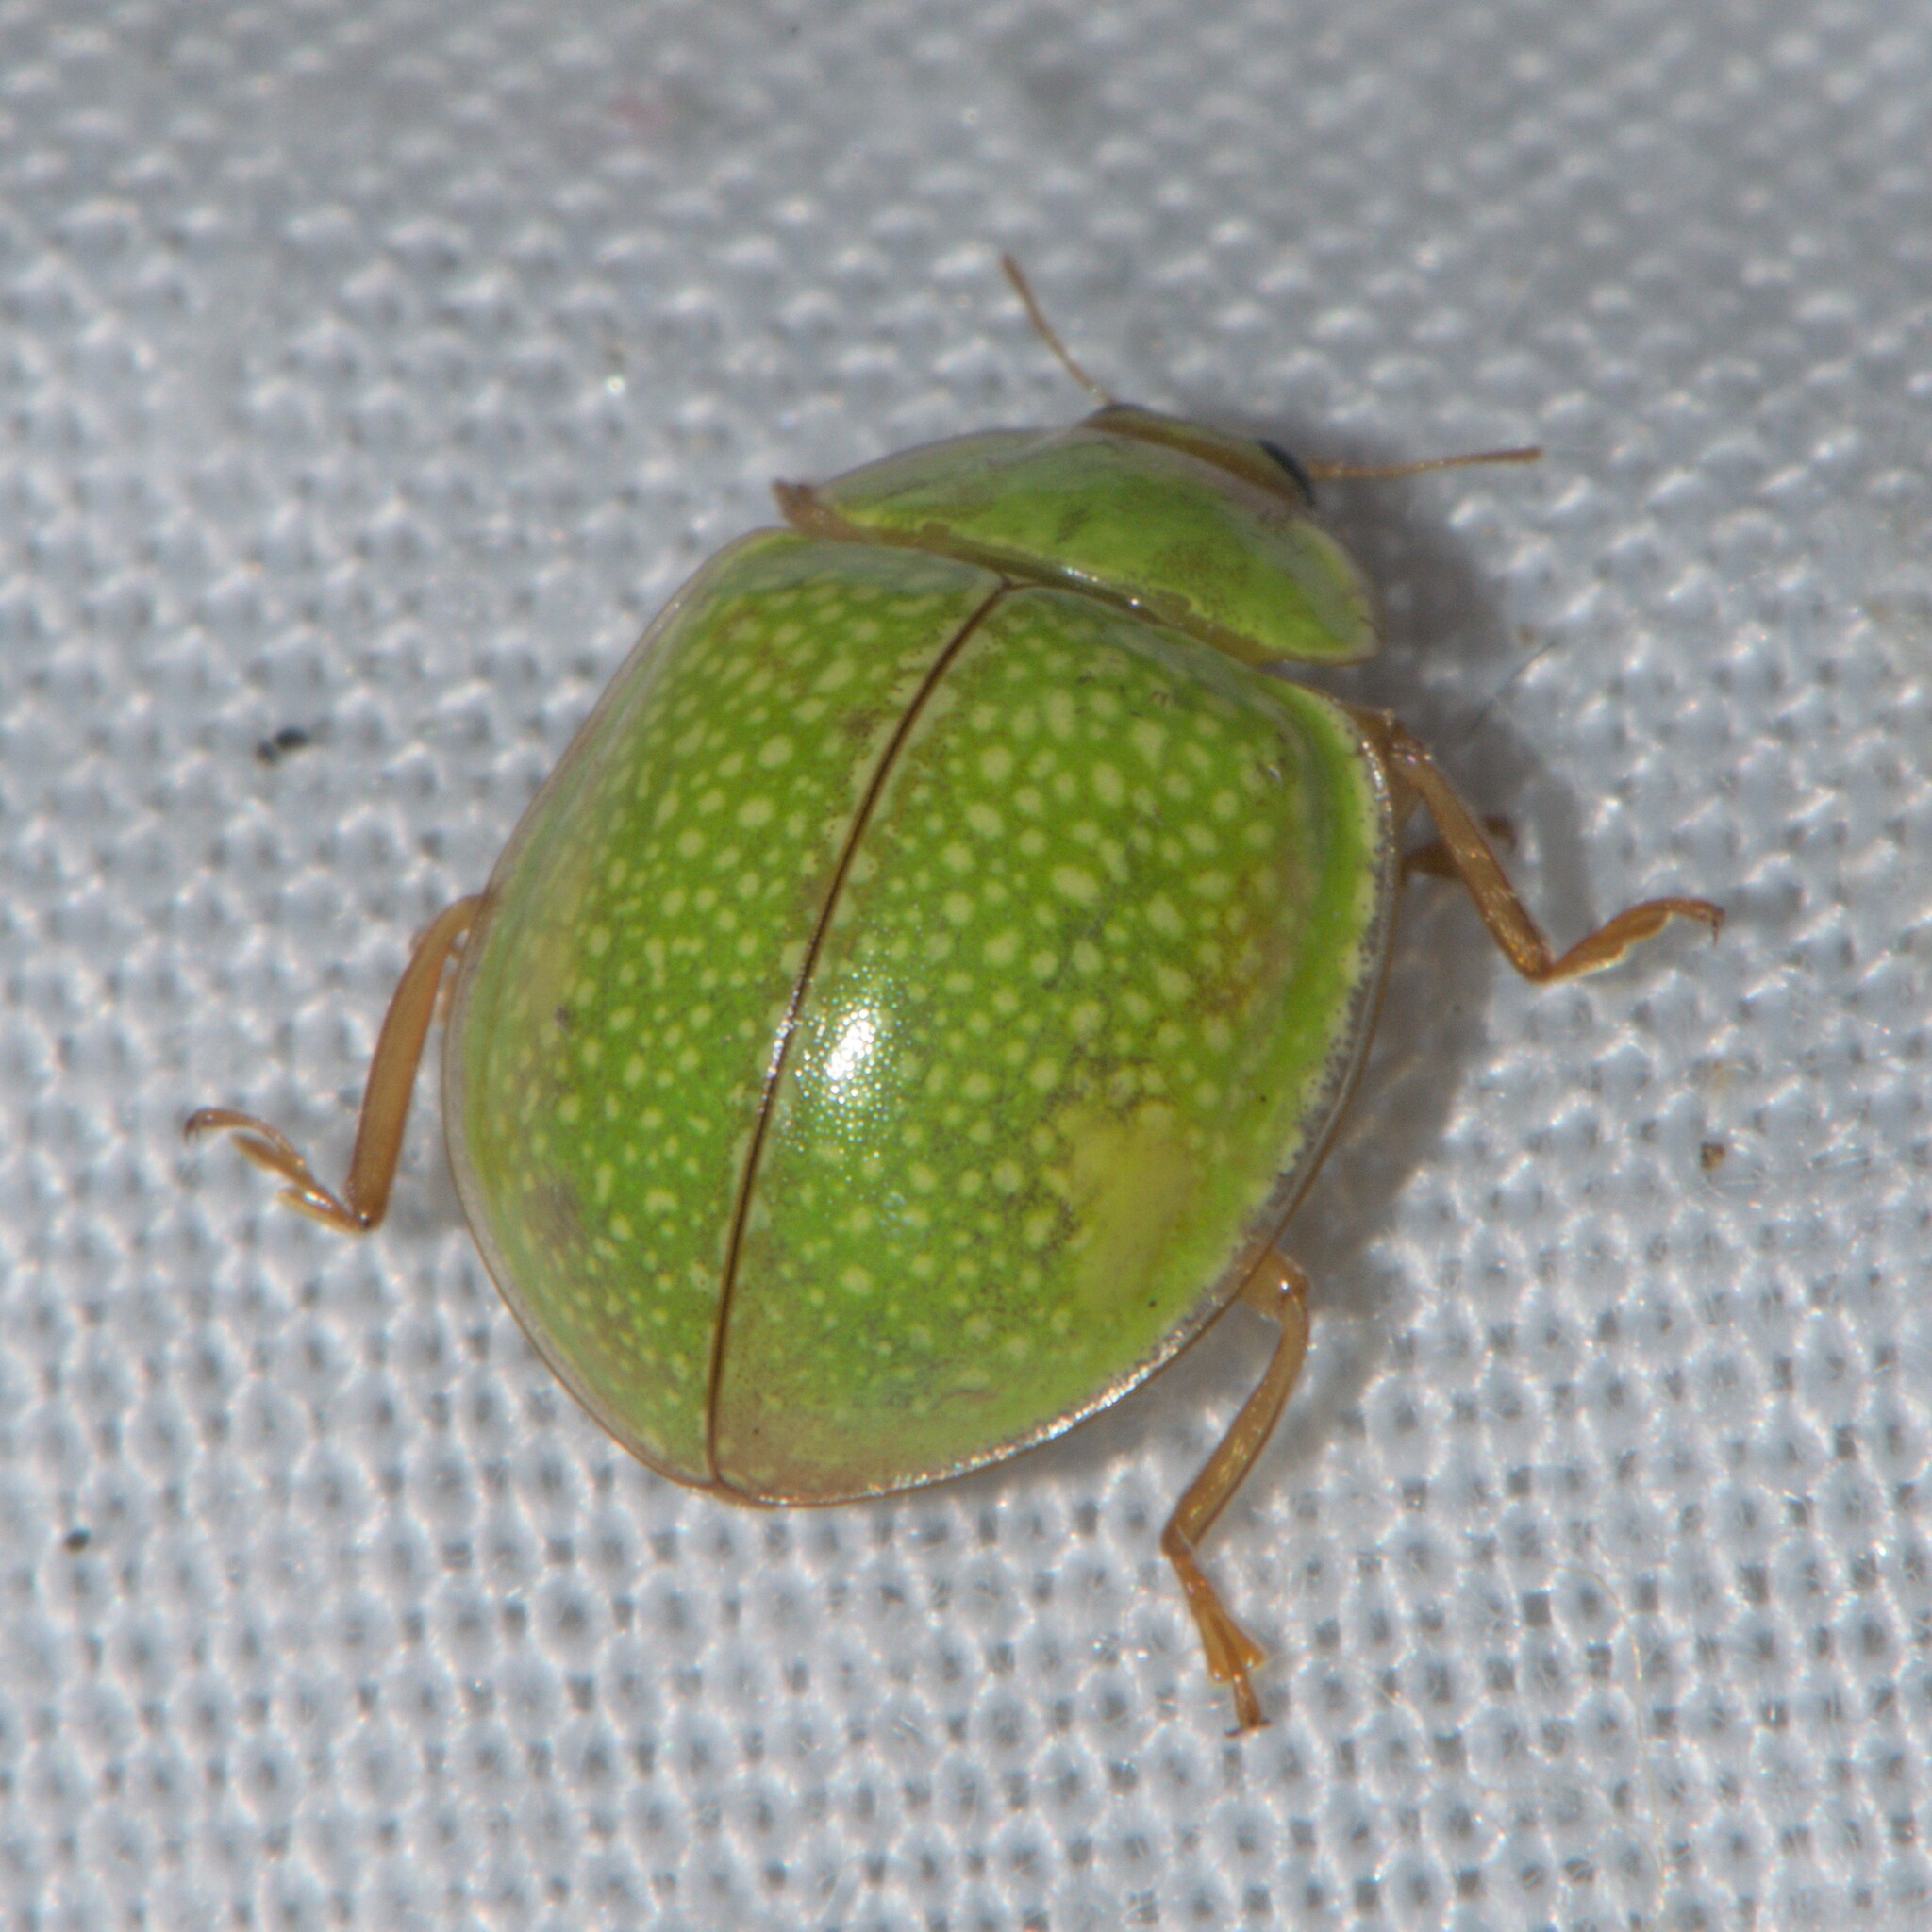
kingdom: Animalia
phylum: Arthropoda
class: Insecta
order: Coleoptera
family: Coccinellidae
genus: Calvia
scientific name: Calvia
